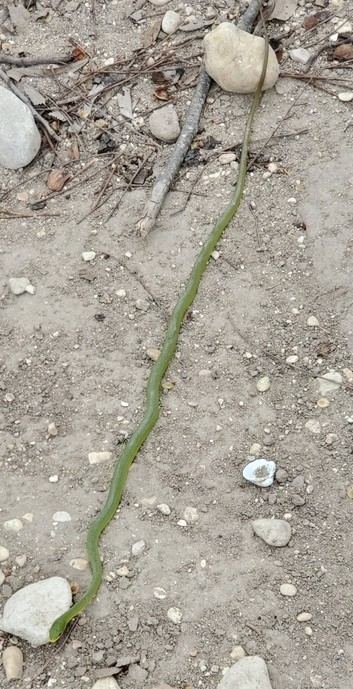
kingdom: Animalia
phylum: Chordata
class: Squamata
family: Colubridae
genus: Opheodrys
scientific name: Opheodrys aestivus
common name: Rough greensnake
